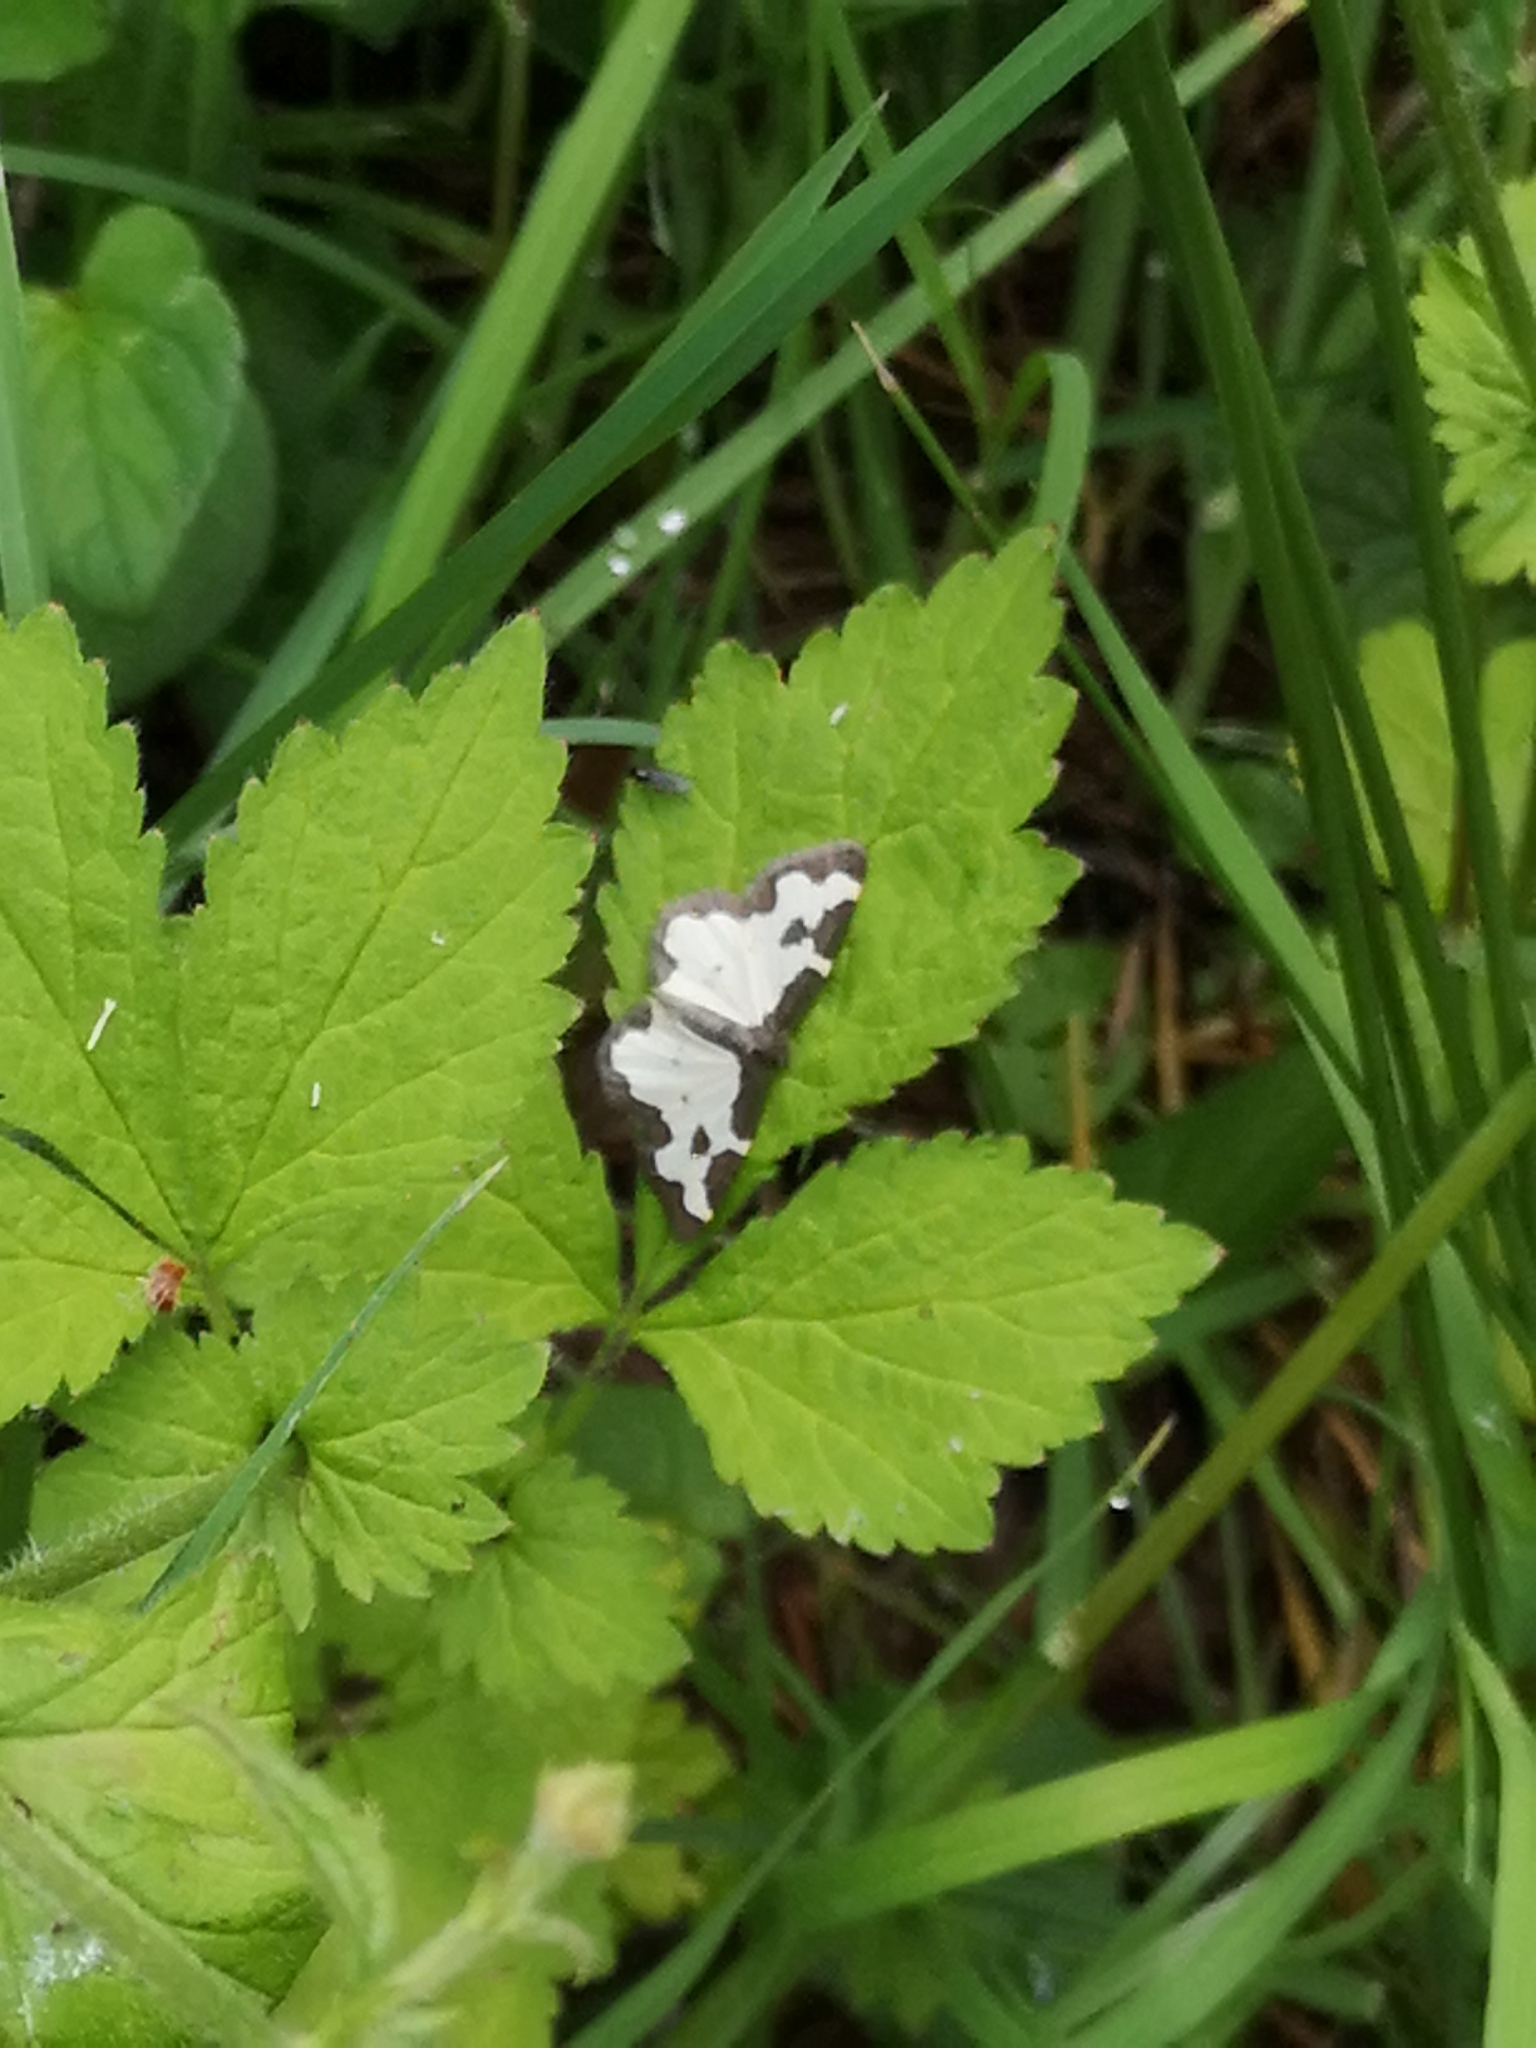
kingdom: Animalia
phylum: Arthropoda
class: Insecta
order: Lepidoptera
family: Geometridae
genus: Lomaspilis
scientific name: Lomaspilis marginata
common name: Clouded border
